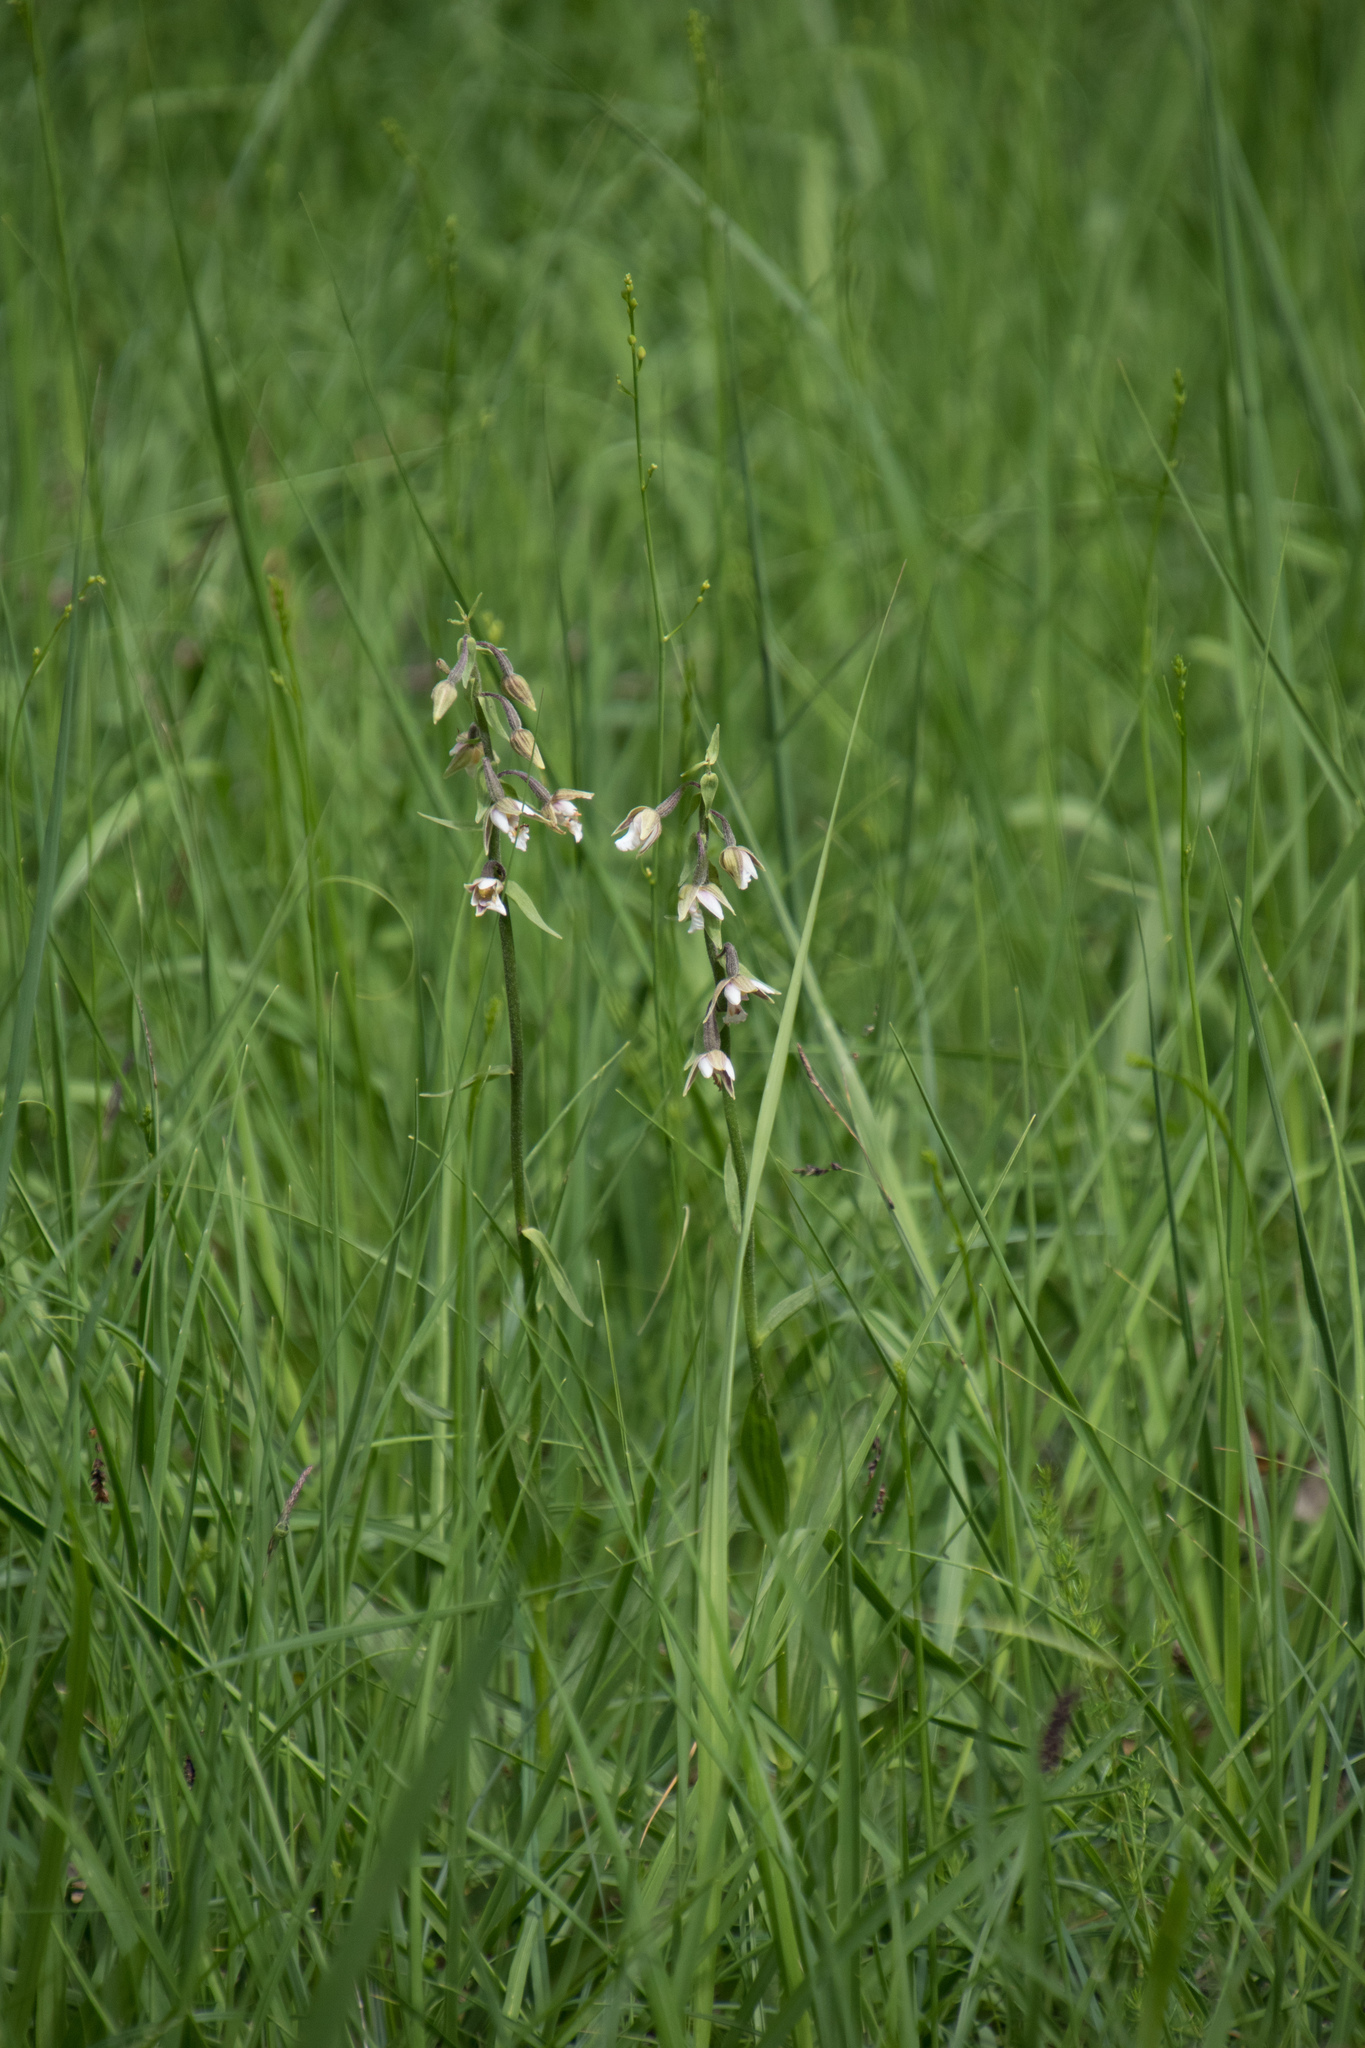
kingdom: Plantae
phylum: Tracheophyta
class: Liliopsida
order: Asparagales
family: Orchidaceae
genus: Epipactis
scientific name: Epipactis palustris
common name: Marsh helleborine
